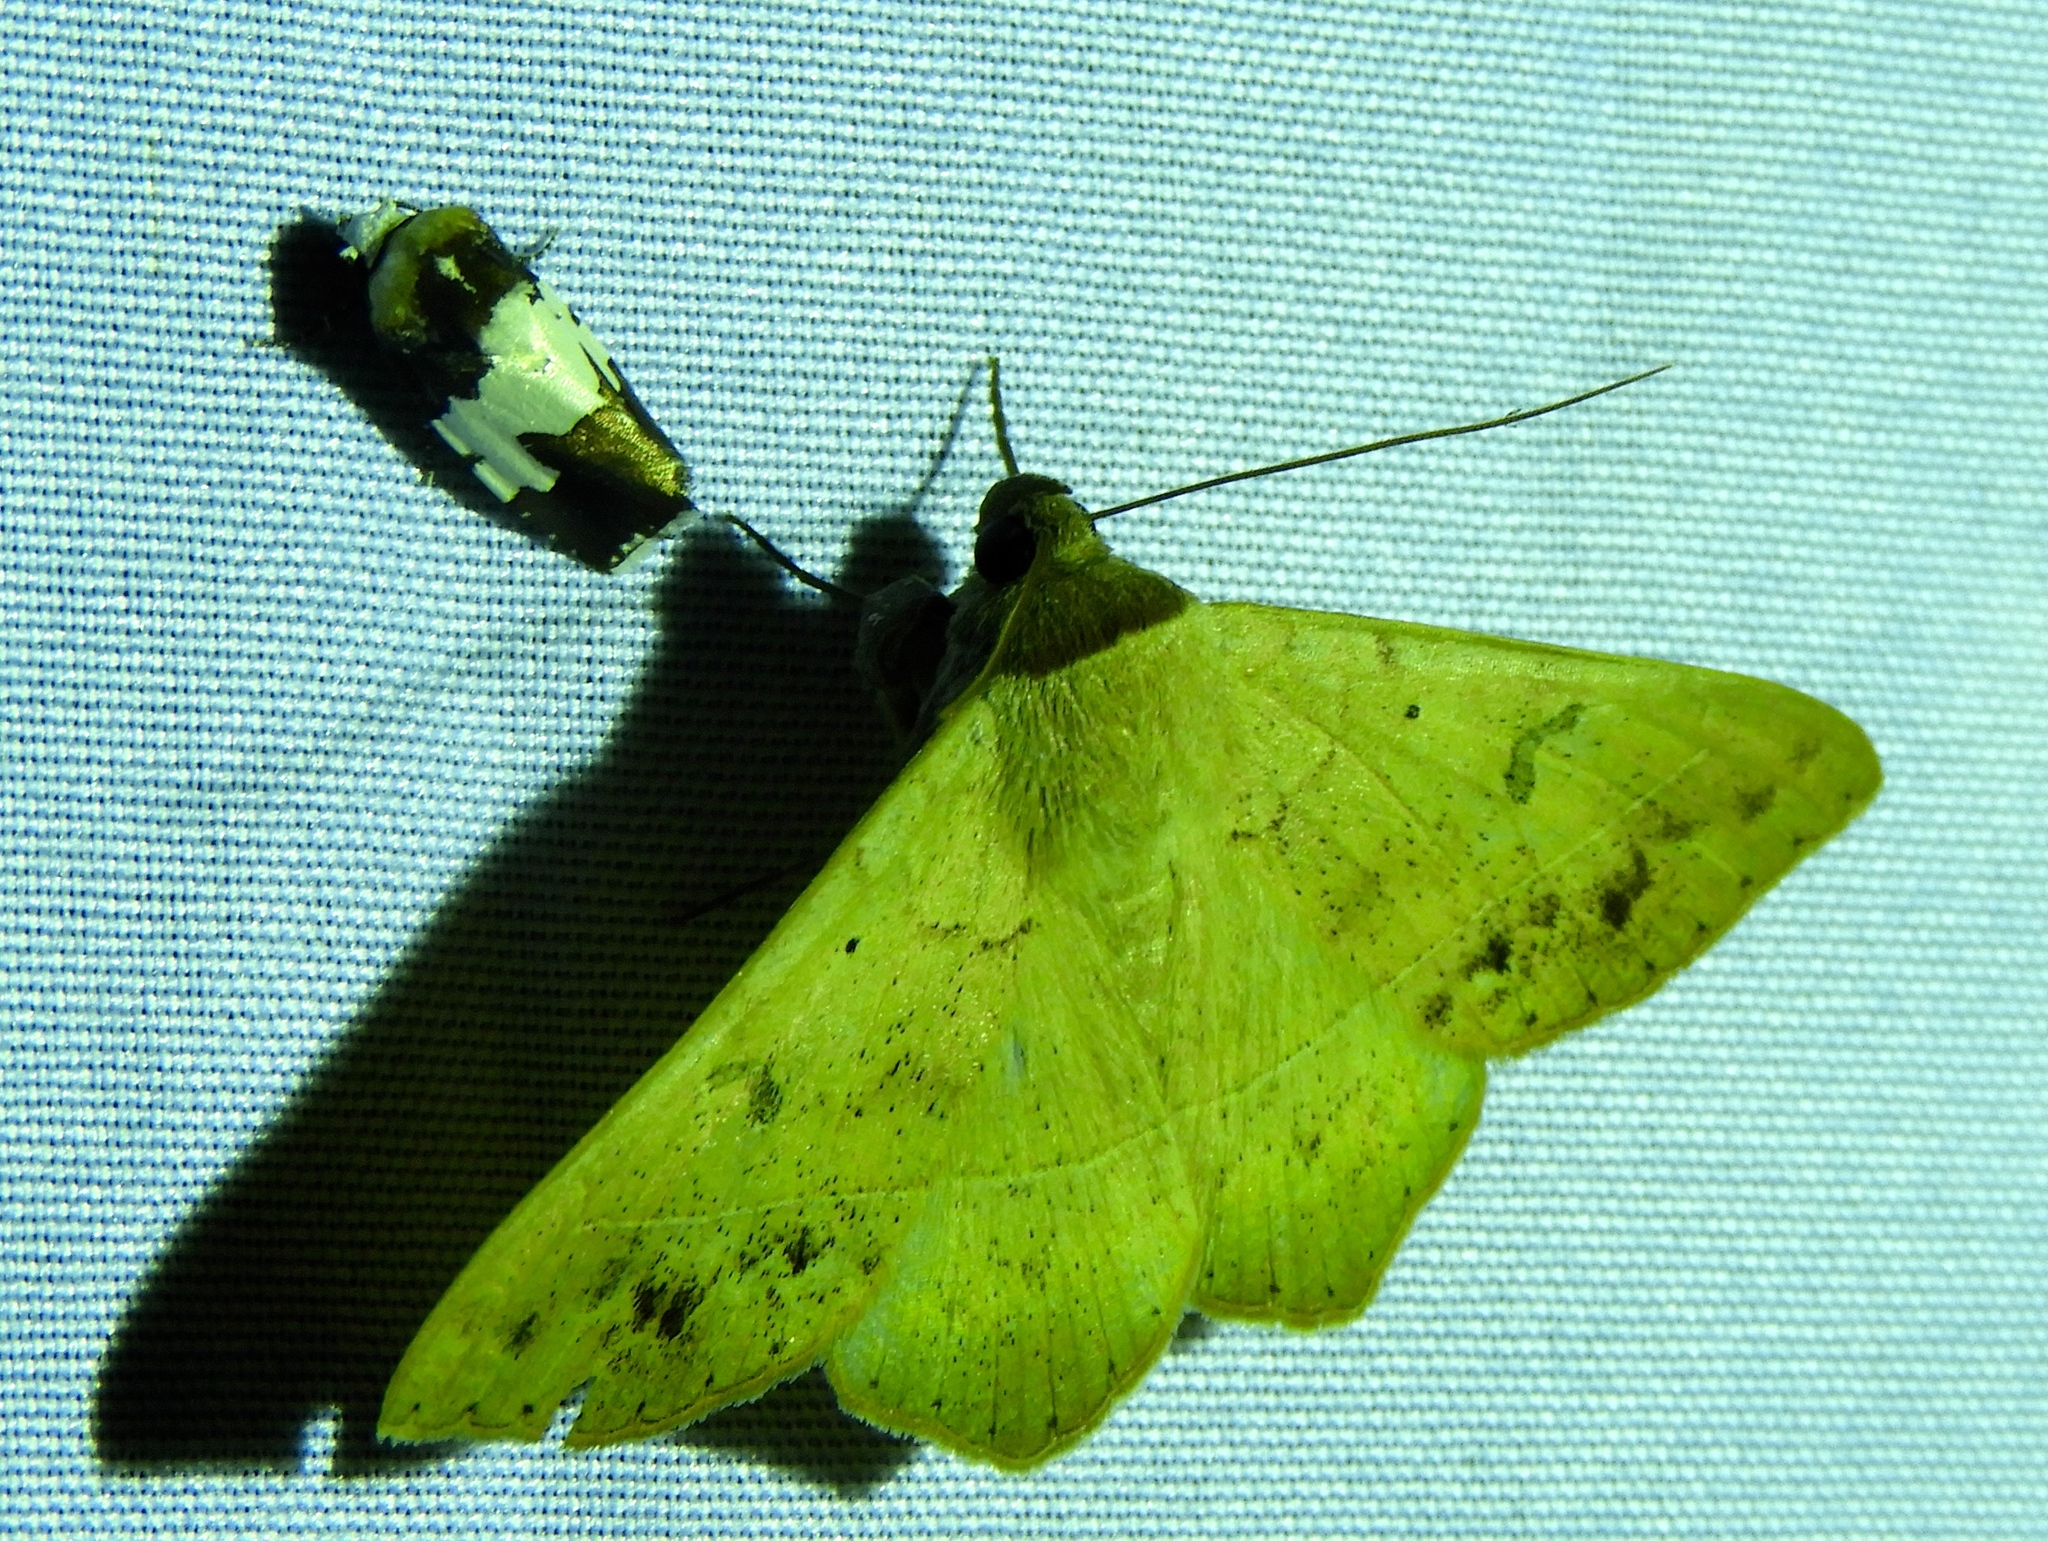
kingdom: Animalia
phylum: Arthropoda
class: Insecta
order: Lepidoptera
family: Erebidae
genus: Hemeroplanis
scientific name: Hemeroplanis scopulepes
